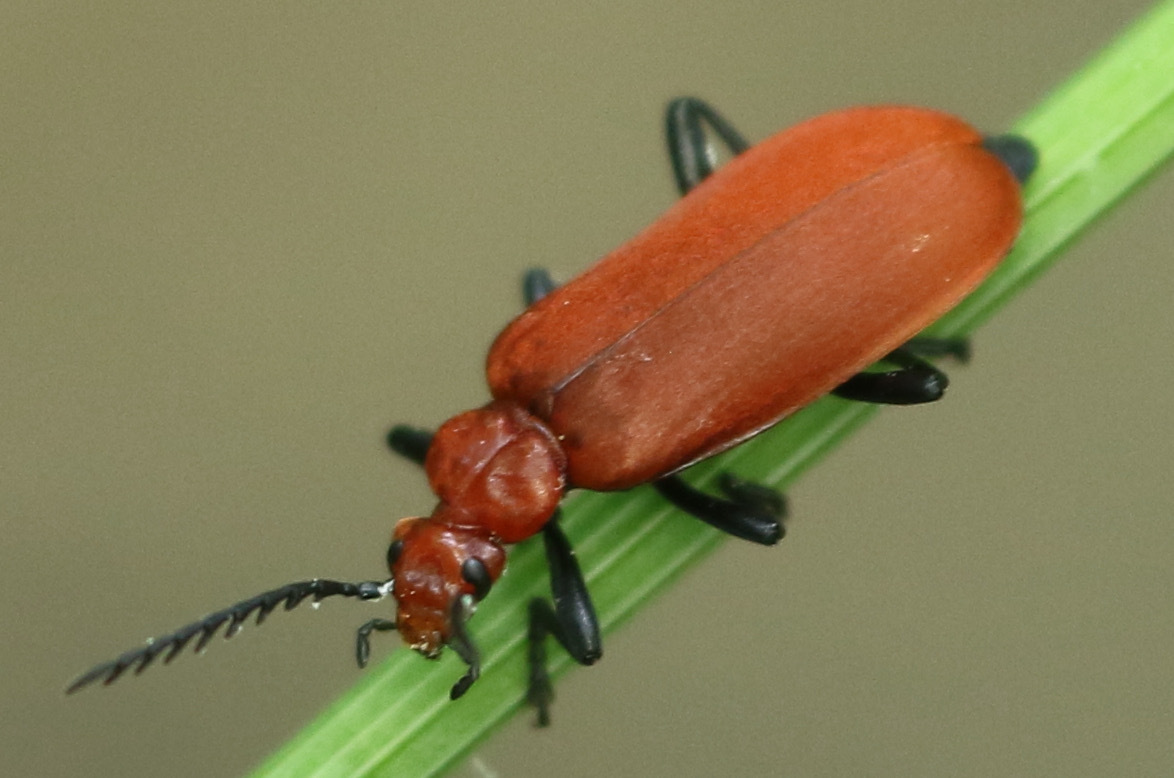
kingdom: Animalia
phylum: Arthropoda
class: Insecta
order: Coleoptera
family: Pyrochroidae
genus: Pyrochroa
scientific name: Pyrochroa serraticornis
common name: Red-headed cardinal beetle
